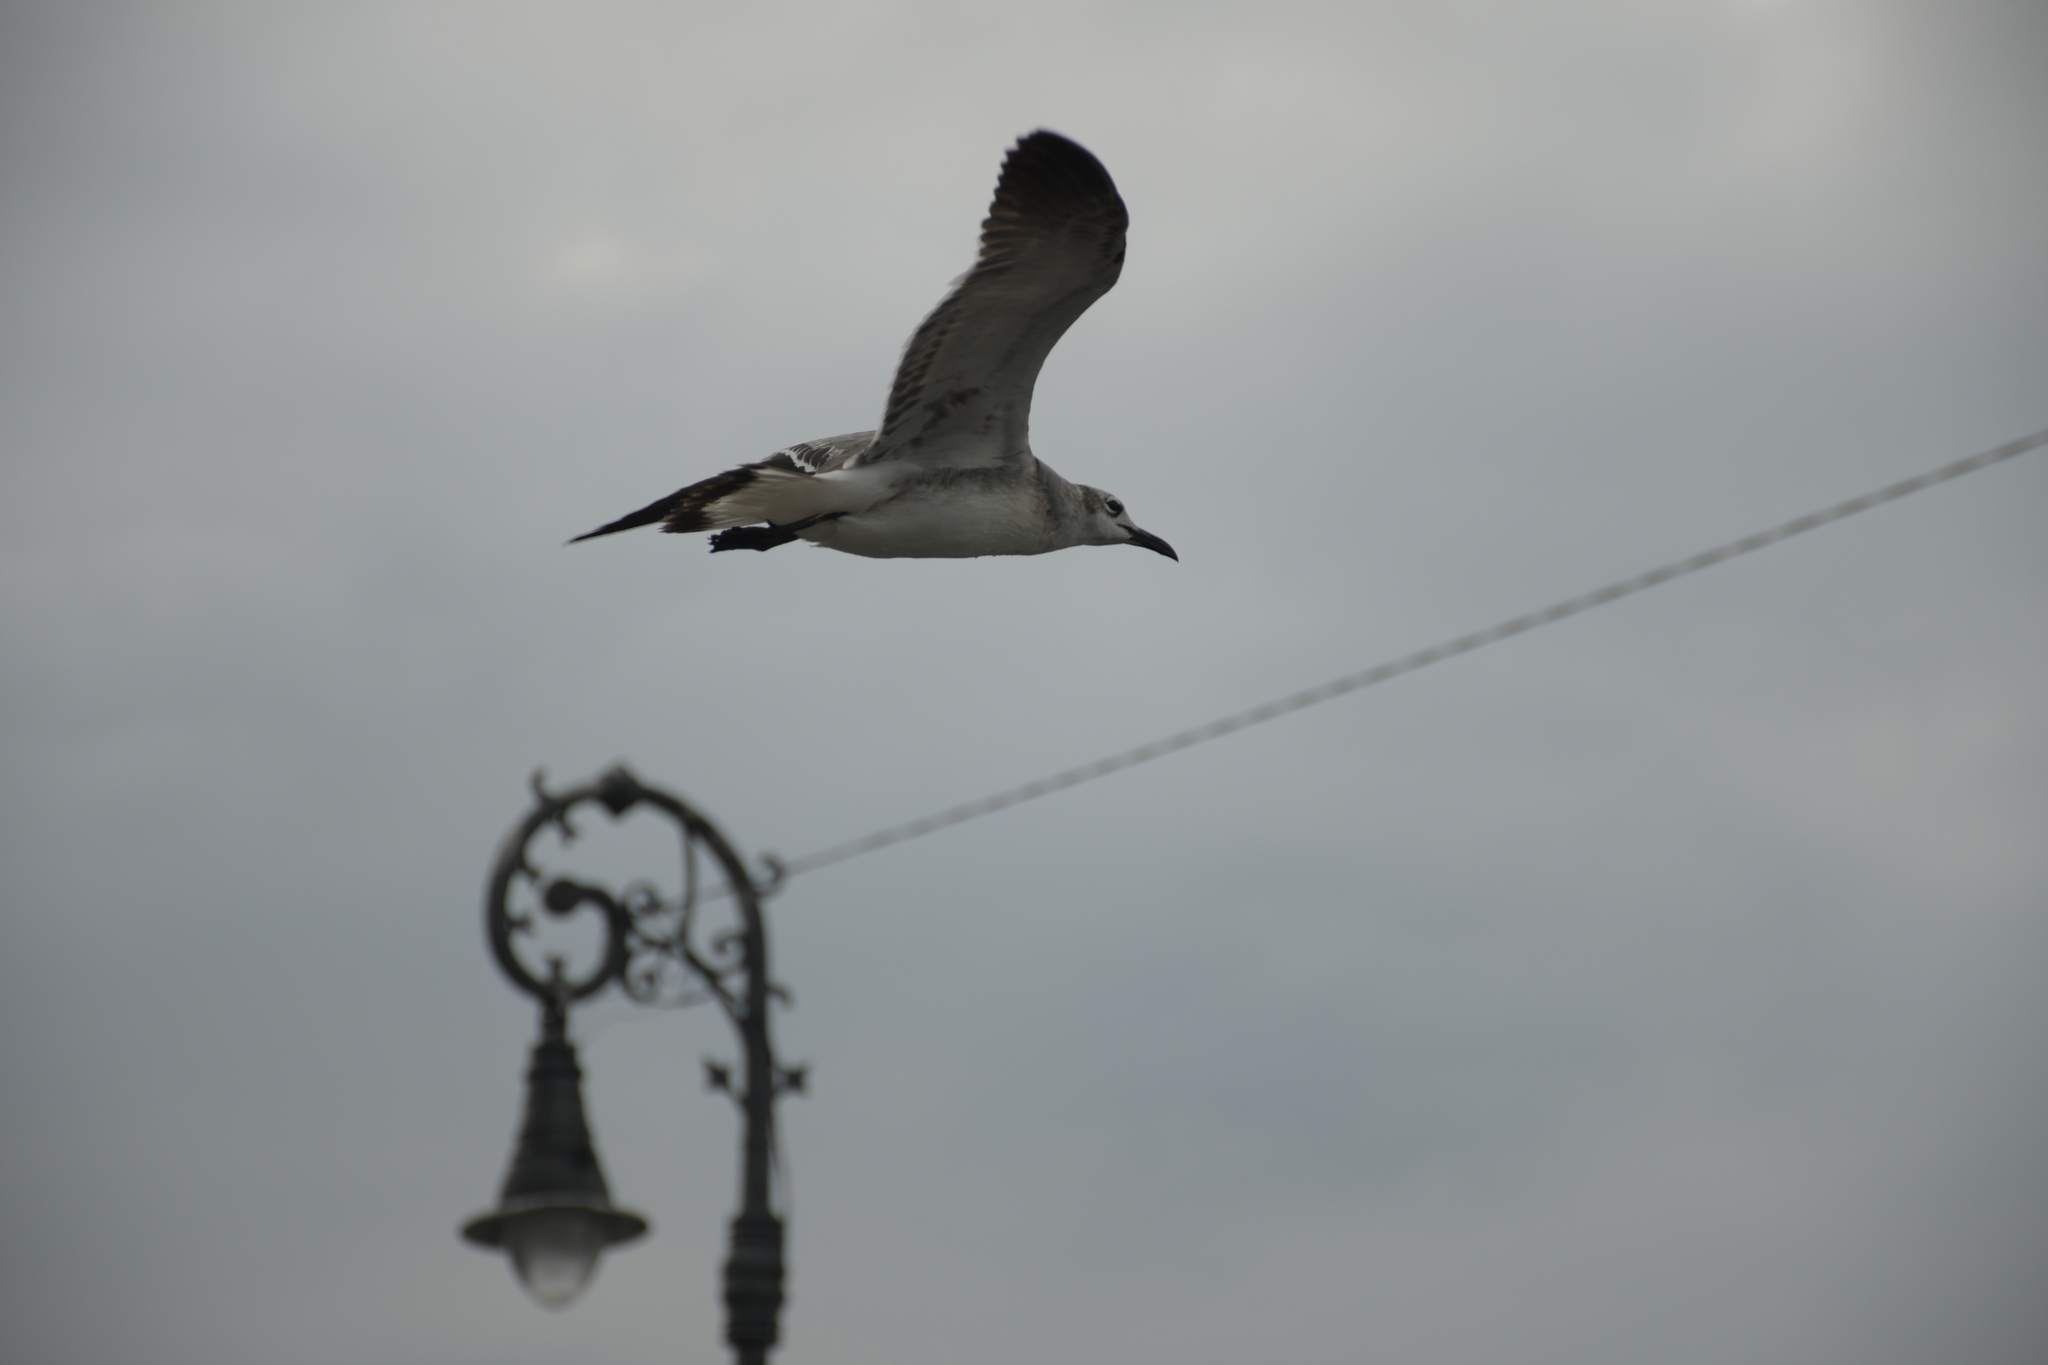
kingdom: Animalia
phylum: Chordata
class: Aves
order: Charadriiformes
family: Laridae
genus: Leucophaeus
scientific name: Leucophaeus atricilla
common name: Laughing gull
